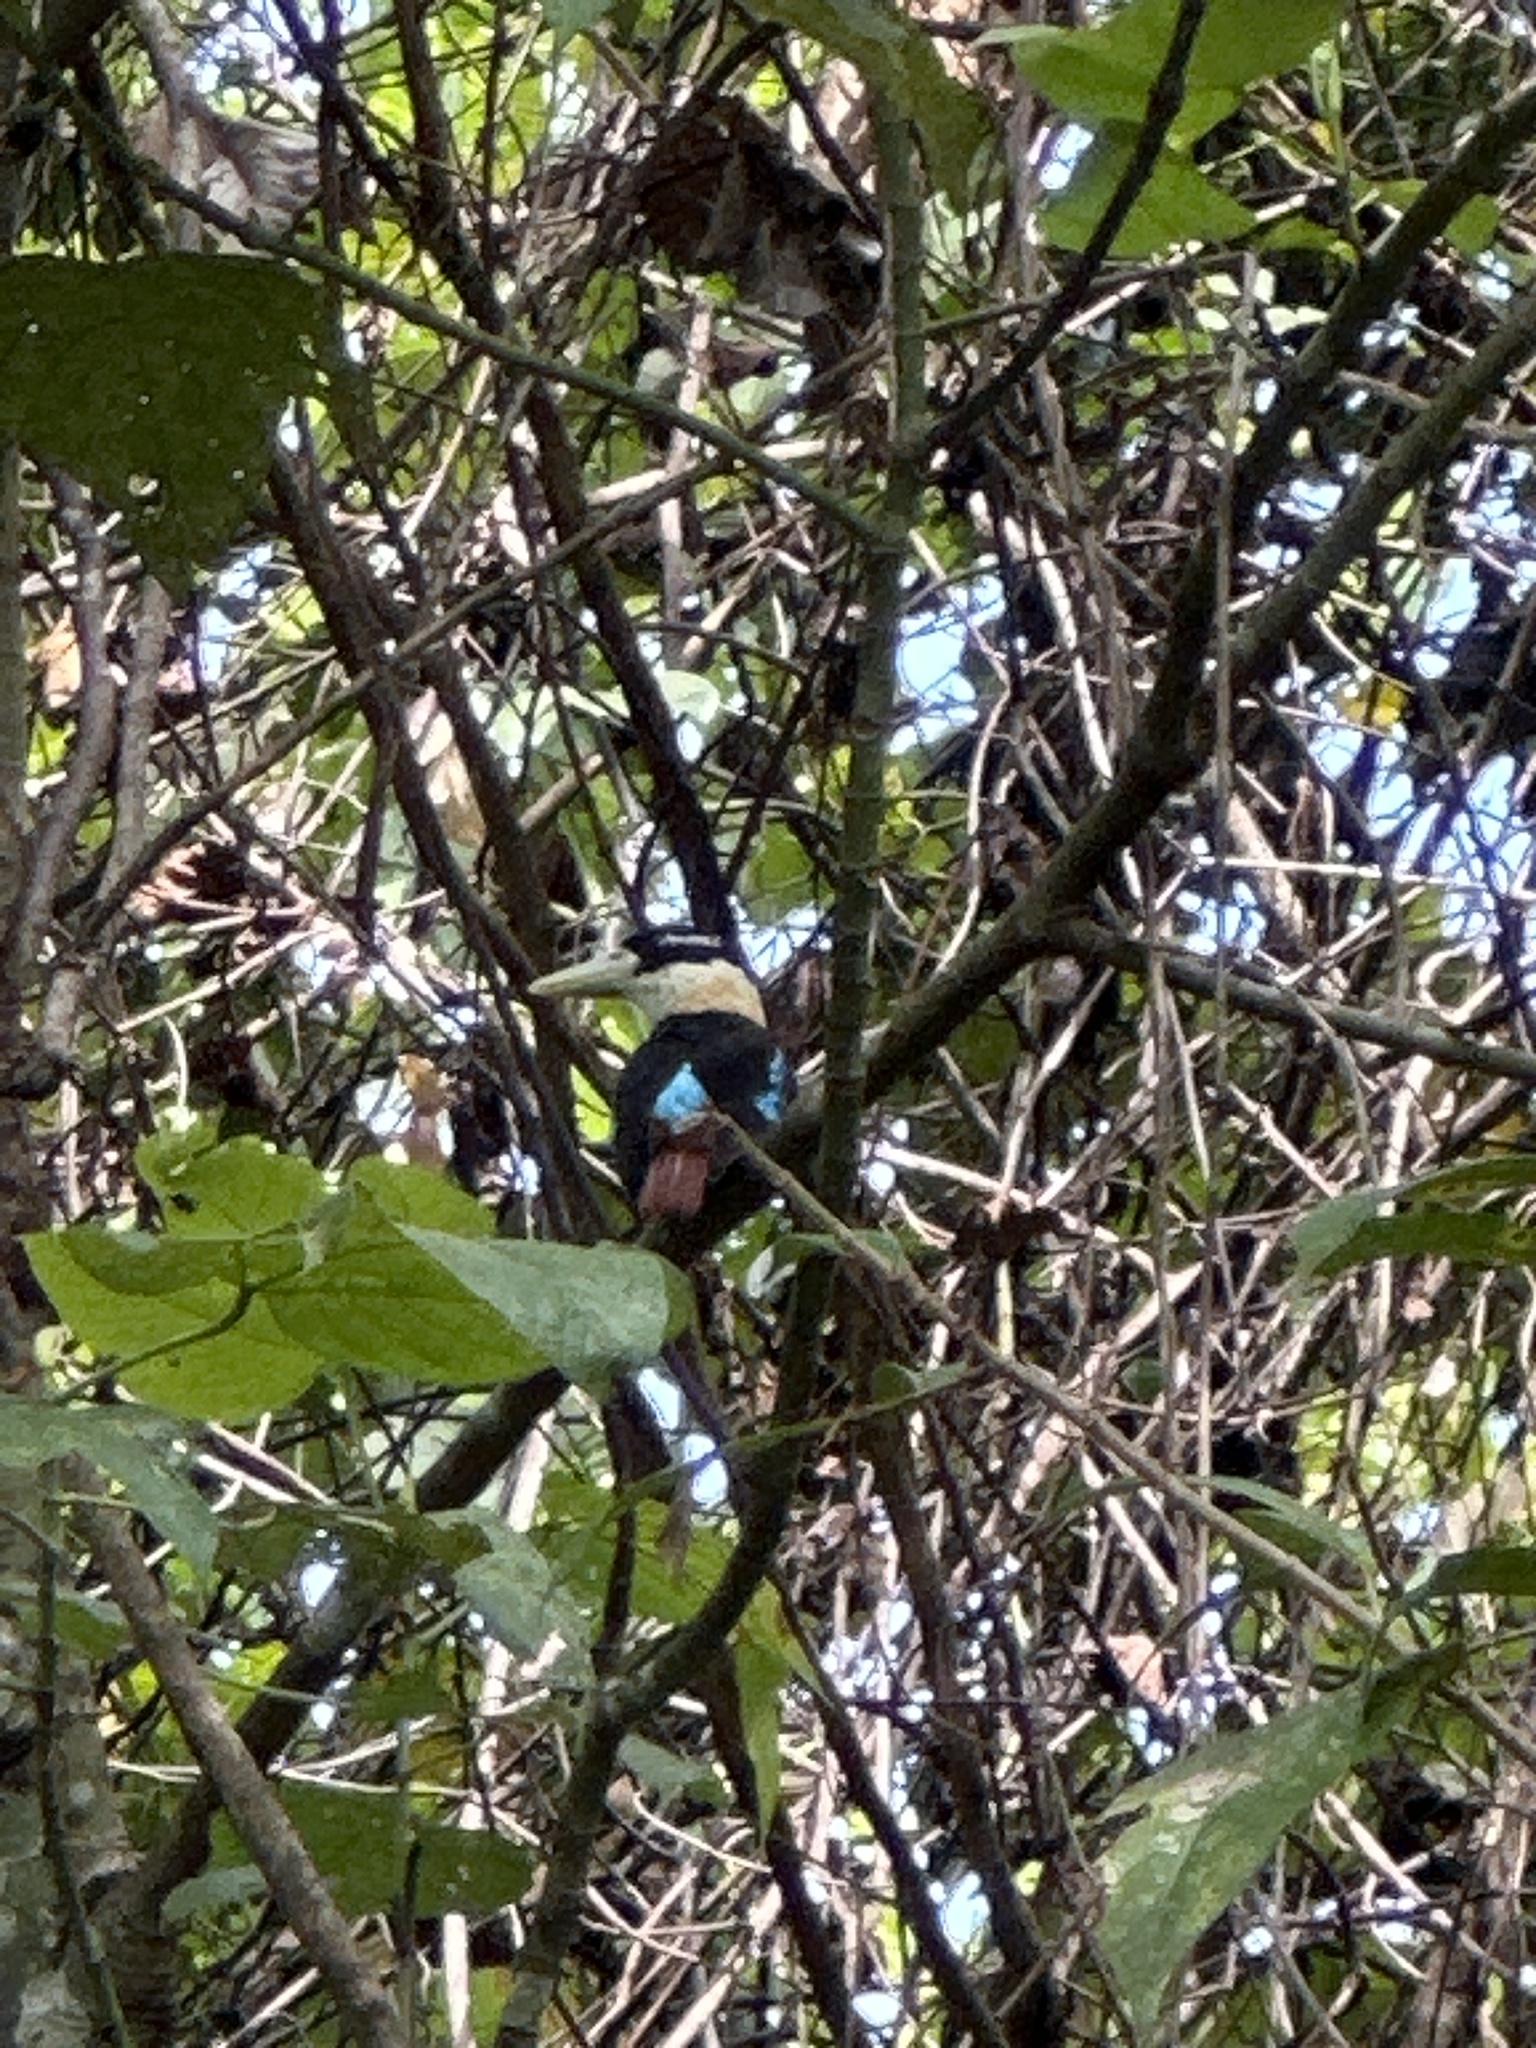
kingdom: Animalia
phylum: Chordata
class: Aves
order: Coraciiformes
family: Alcedinidae
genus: Dacelo
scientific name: Dacelo gaudichaud
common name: Rufous-bellied kookaburra
